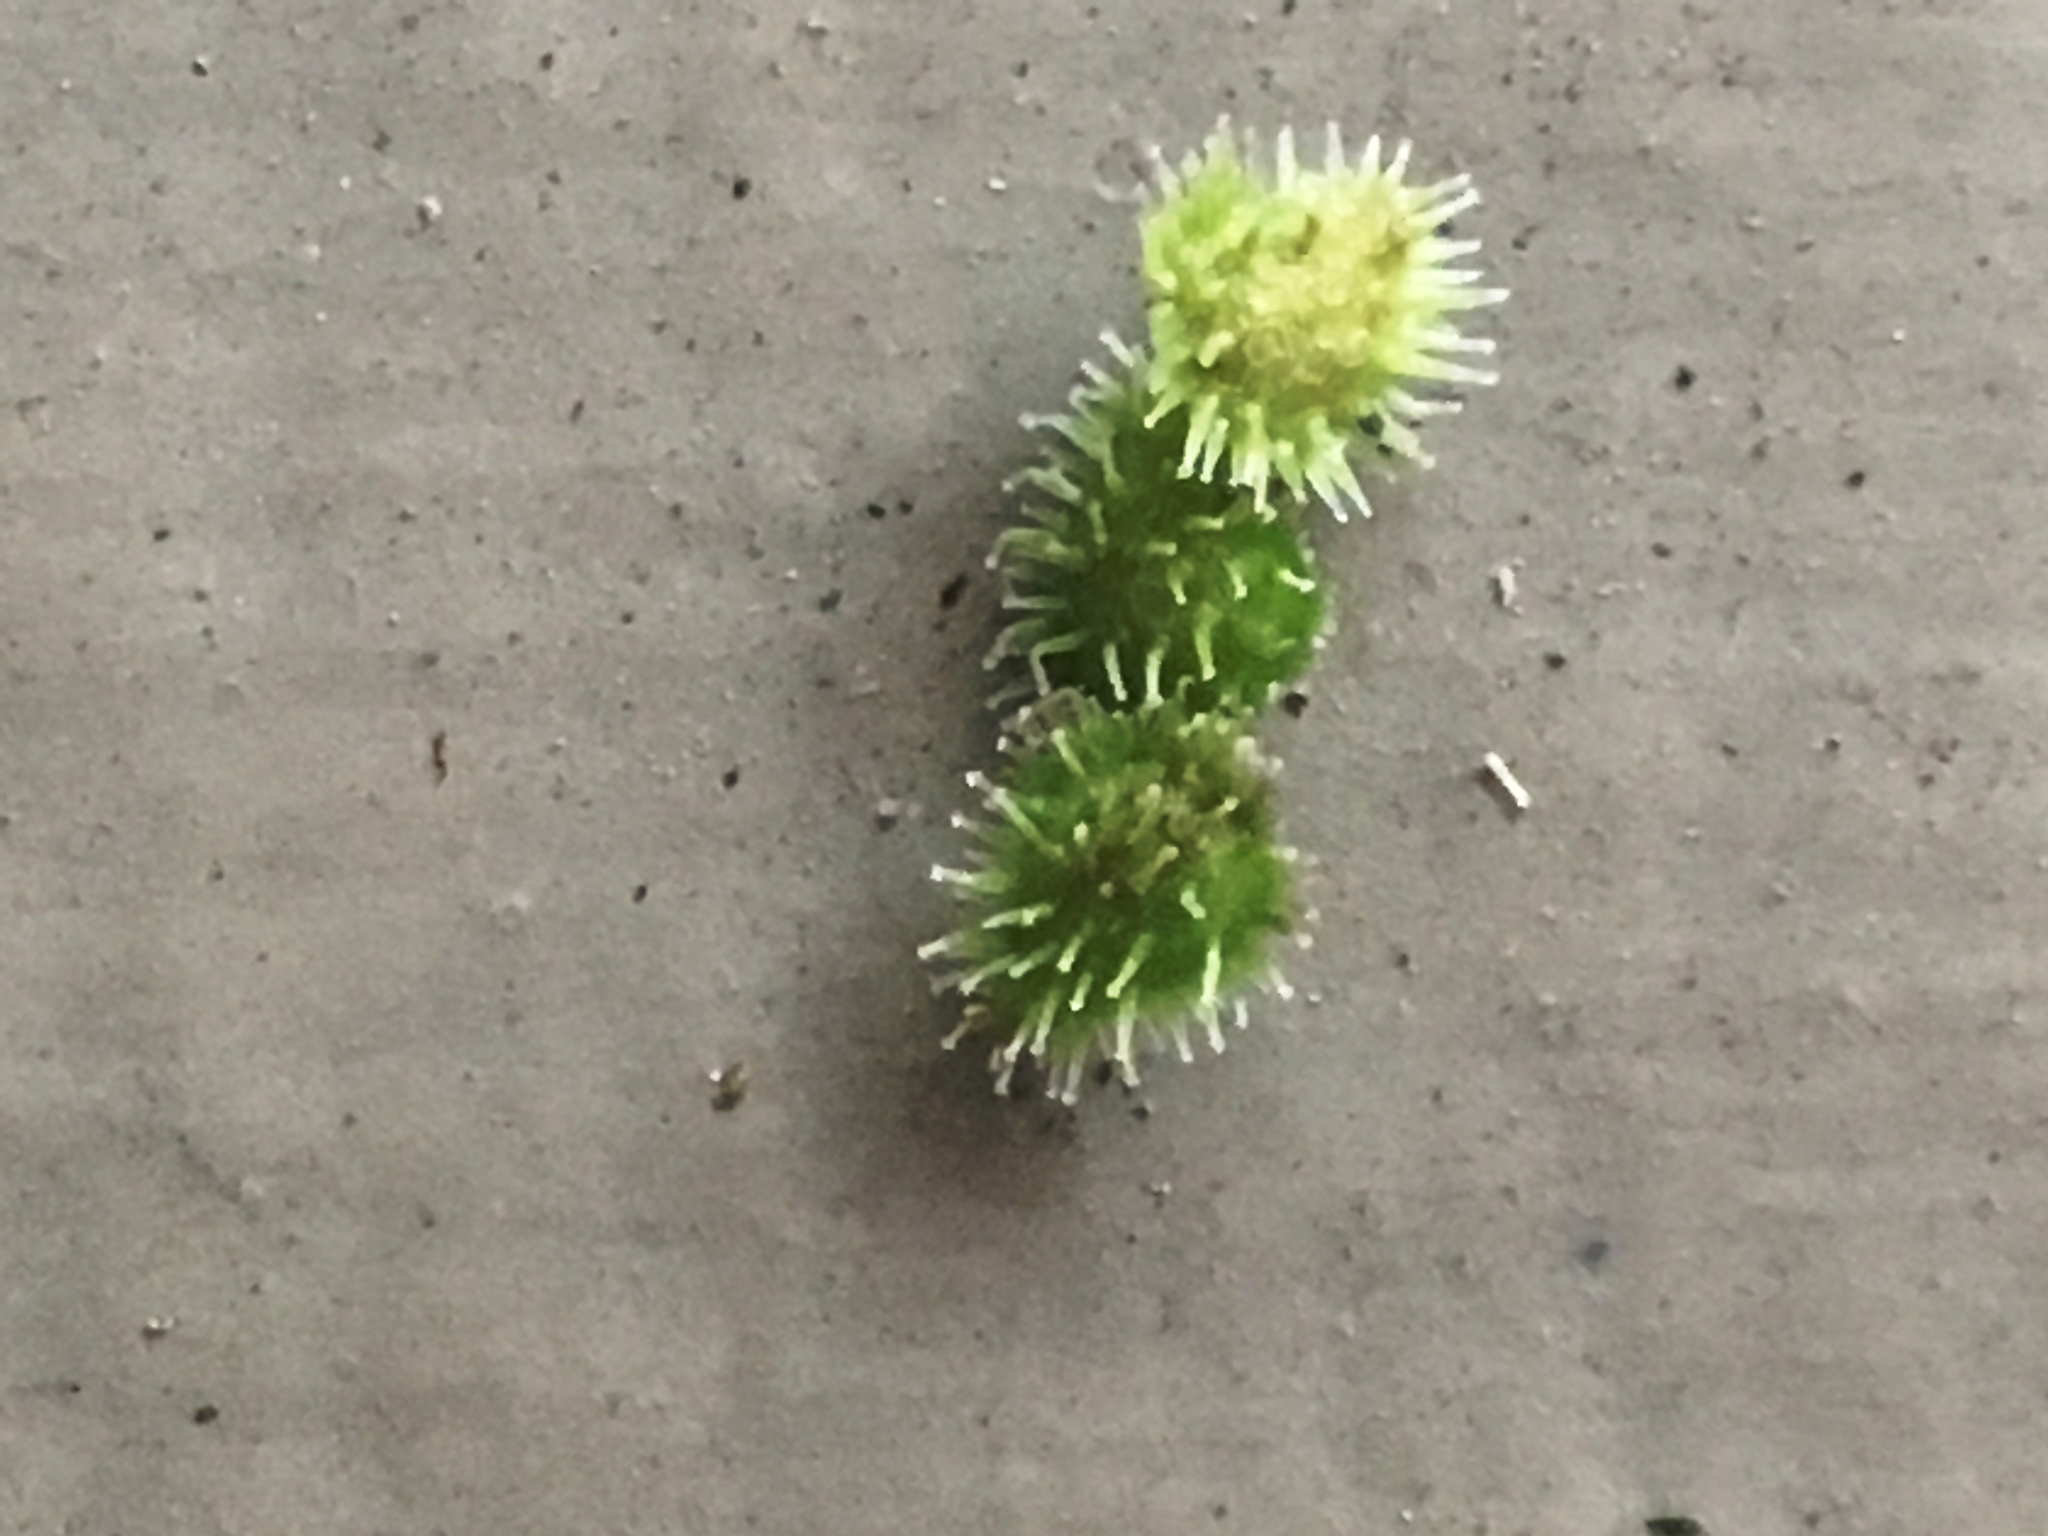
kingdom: Plantae
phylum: Tracheophyta
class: Magnoliopsida
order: Boraginales
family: Boraginaceae
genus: Hackelia
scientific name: Hackelia virginiana
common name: Beggar's-lice
